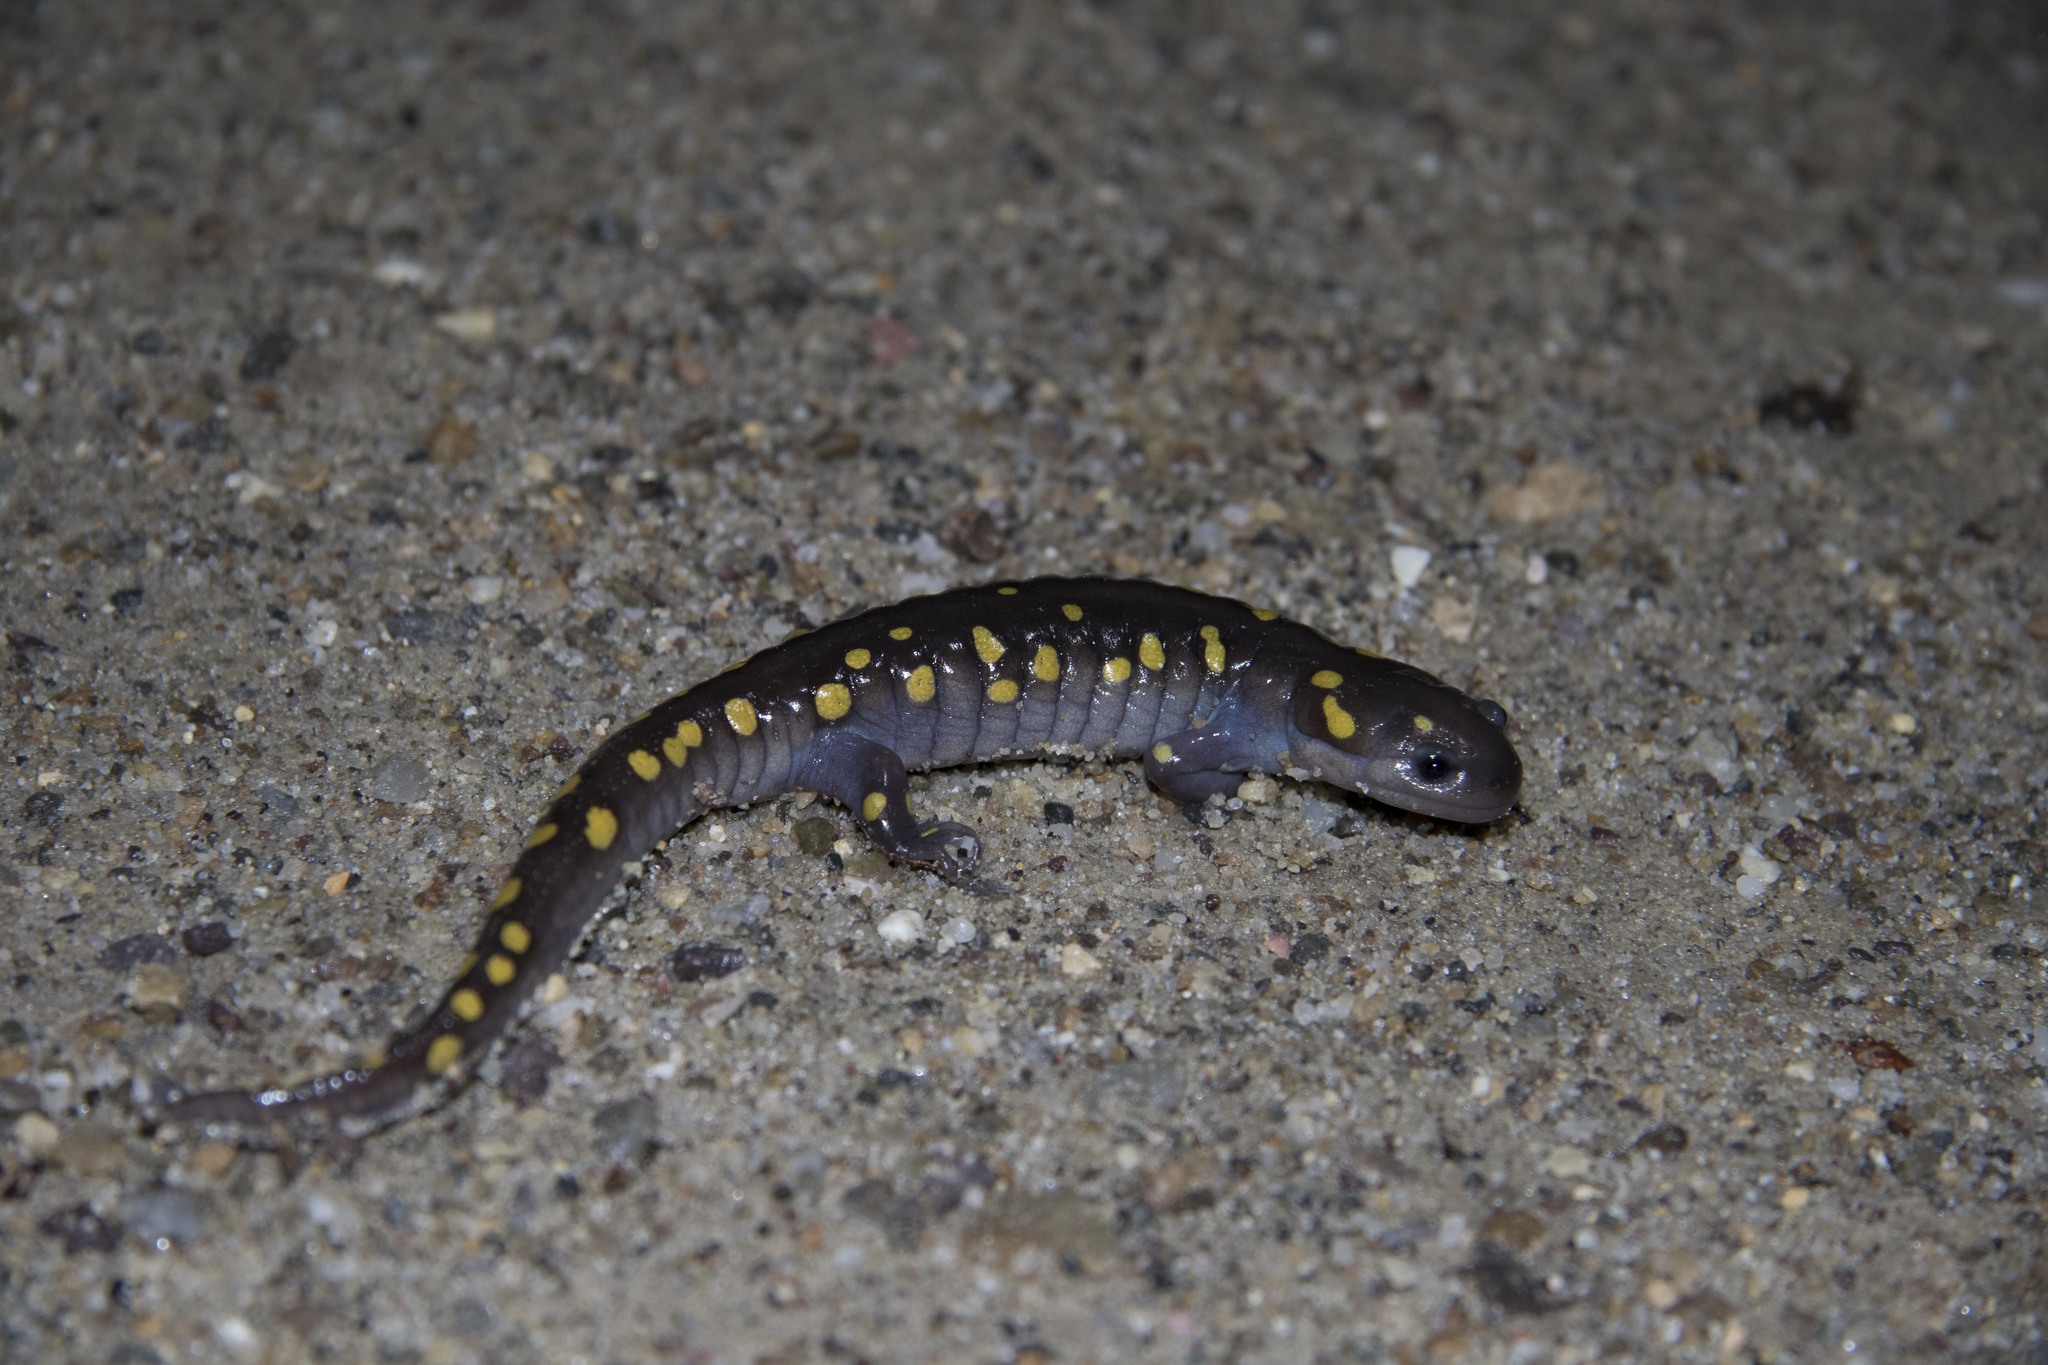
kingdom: Animalia
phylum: Chordata
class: Amphibia
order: Caudata
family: Ambystomatidae
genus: Ambystoma
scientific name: Ambystoma maculatum
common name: Spotted salamander
